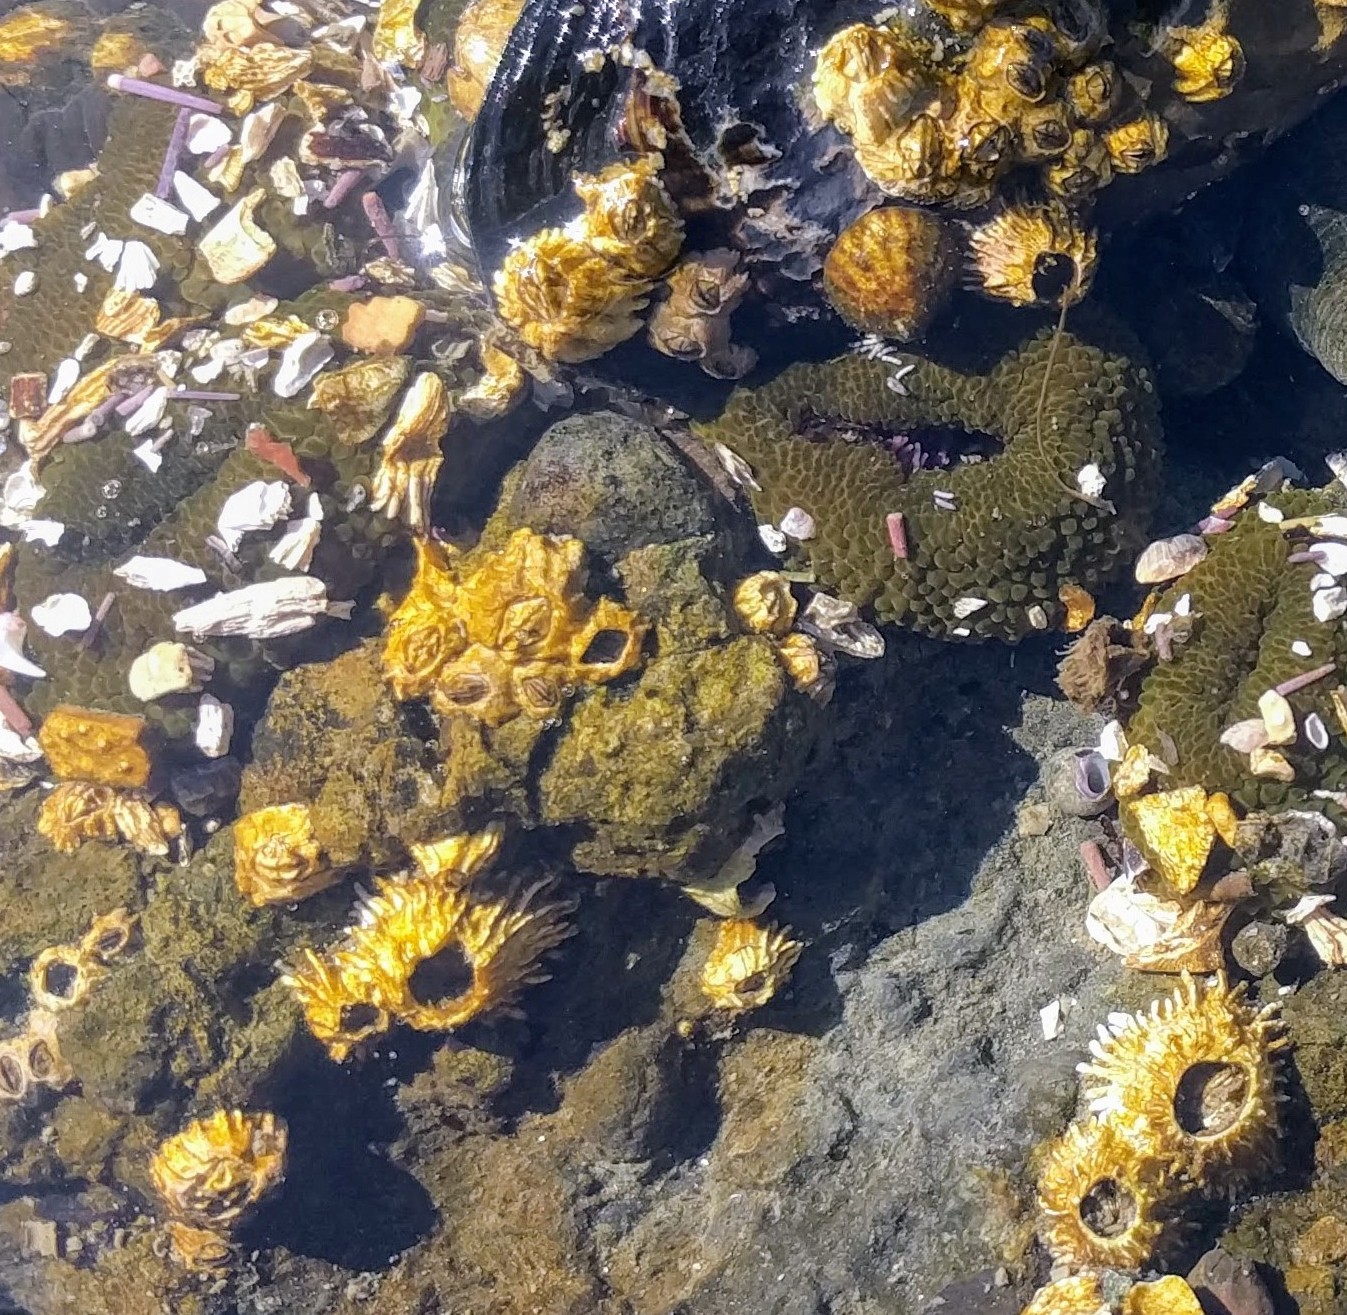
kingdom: Animalia
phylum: Arthropoda
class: Maxillopoda
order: Sessilia
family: Balanidae
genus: Balanus
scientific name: Balanus glandula
